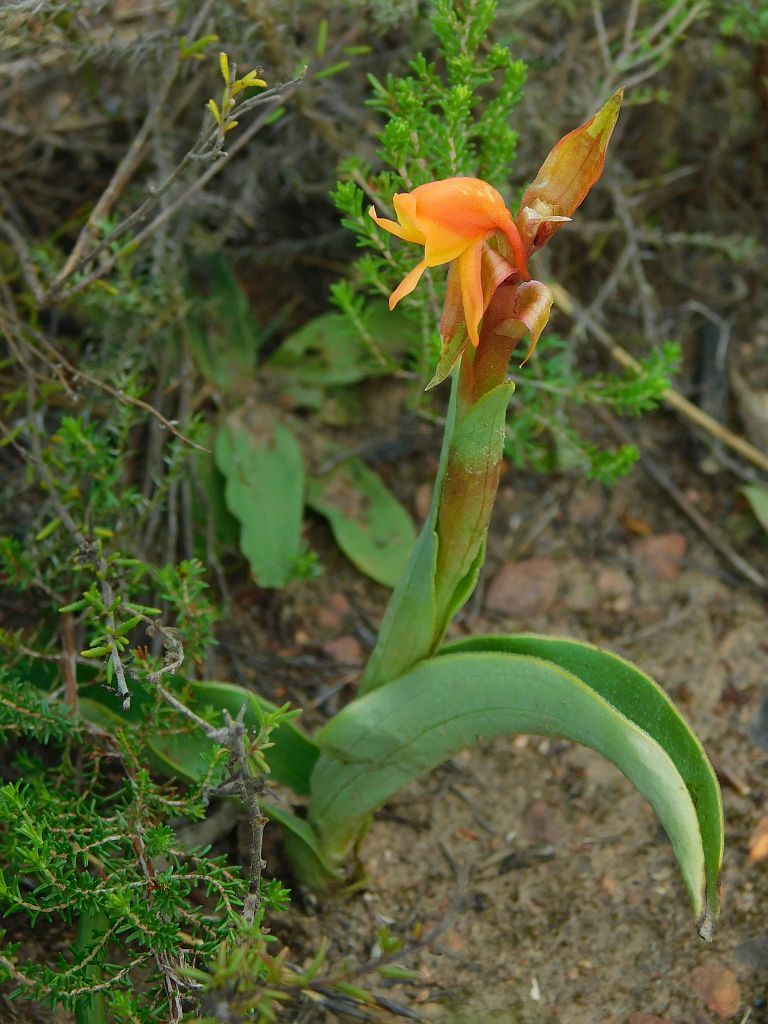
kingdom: Plantae
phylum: Tracheophyta
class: Liliopsida
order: Asparagales
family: Orchidaceae
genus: Satyrium
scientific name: Satyrium coriifolium
